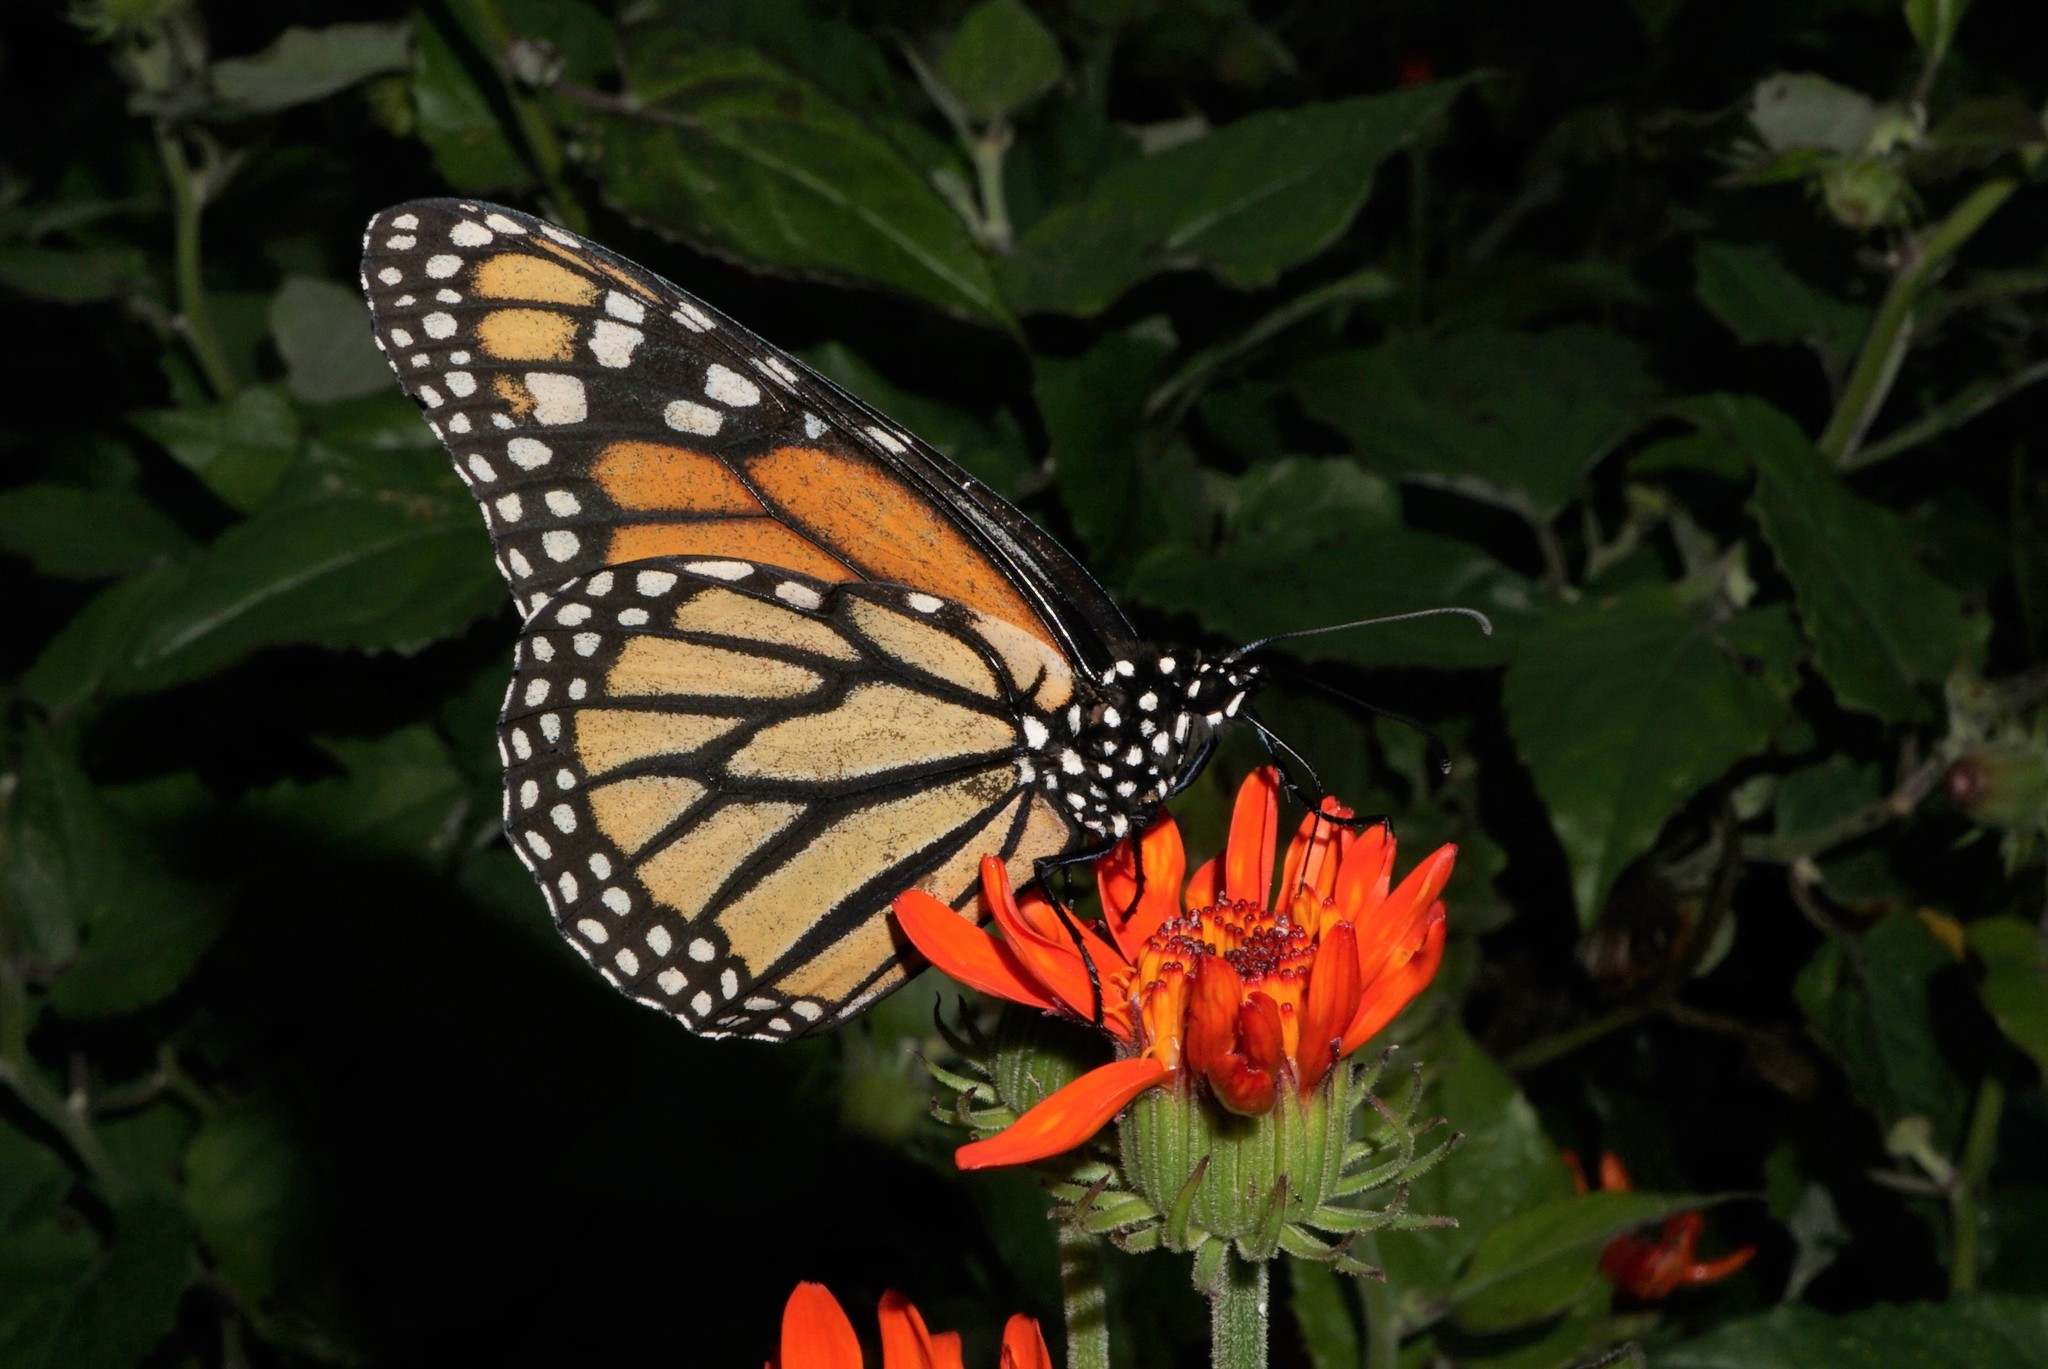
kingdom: Animalia
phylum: Arthropoda
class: Insecta
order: Lepidoptera
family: Nymphalidae
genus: Danaus
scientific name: Danaus plexippus
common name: Monarch
